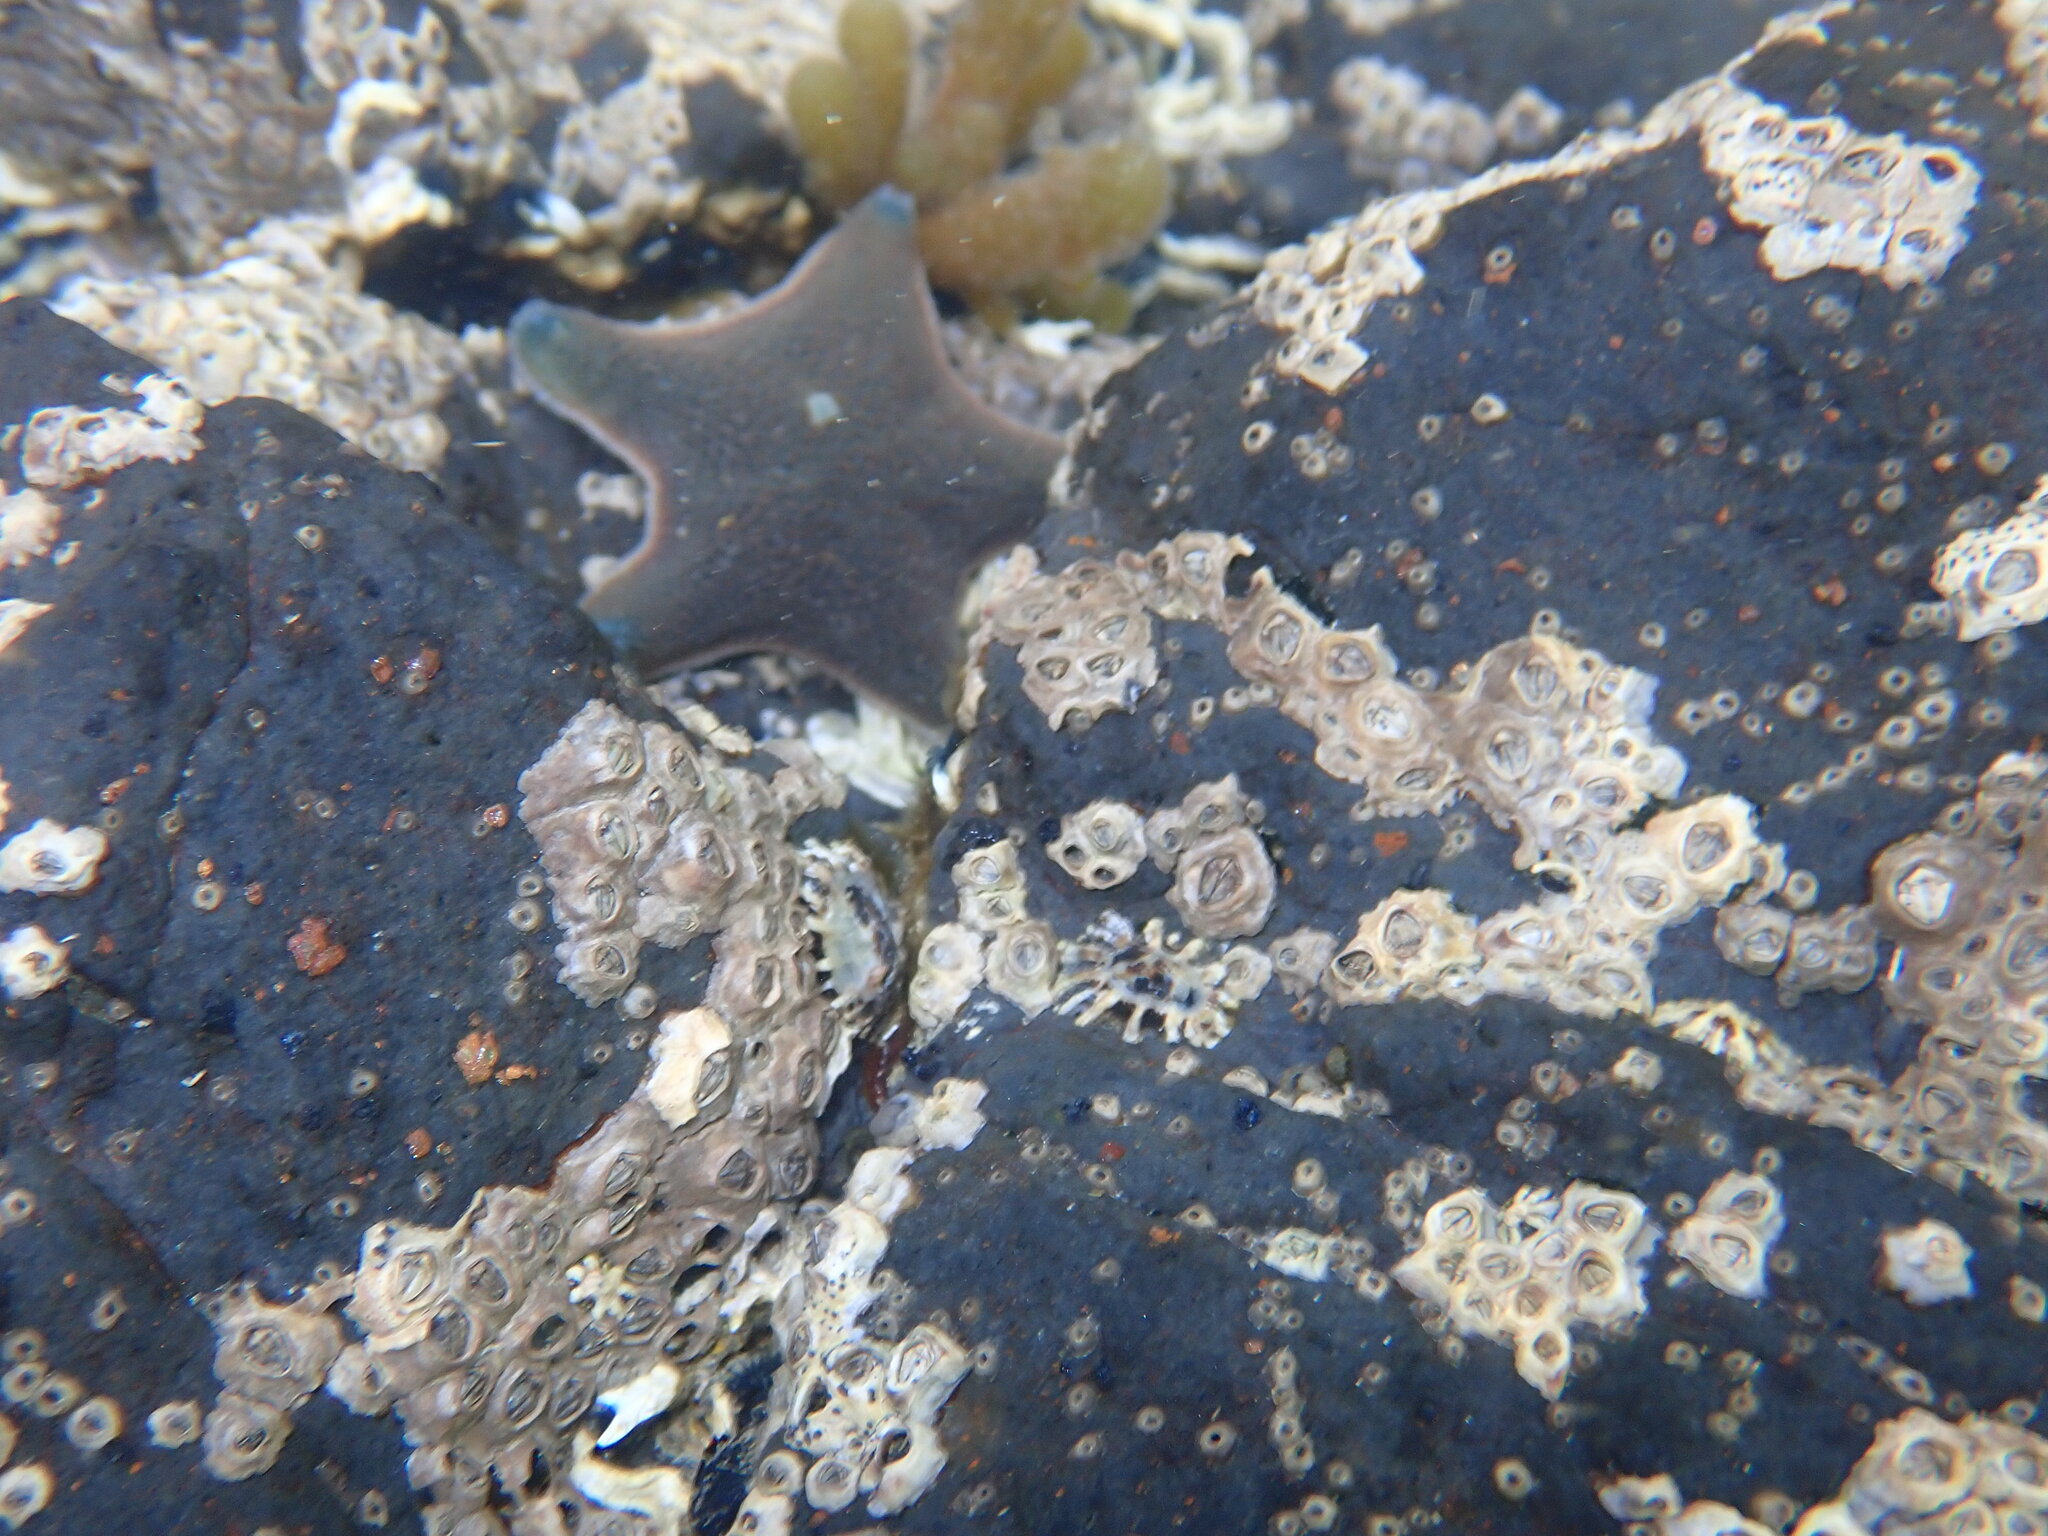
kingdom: Animalia
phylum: Echinodermata
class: Asteroidea
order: Valvatida
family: Asterinidae
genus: Patiriella
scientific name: Patiriella regularis
